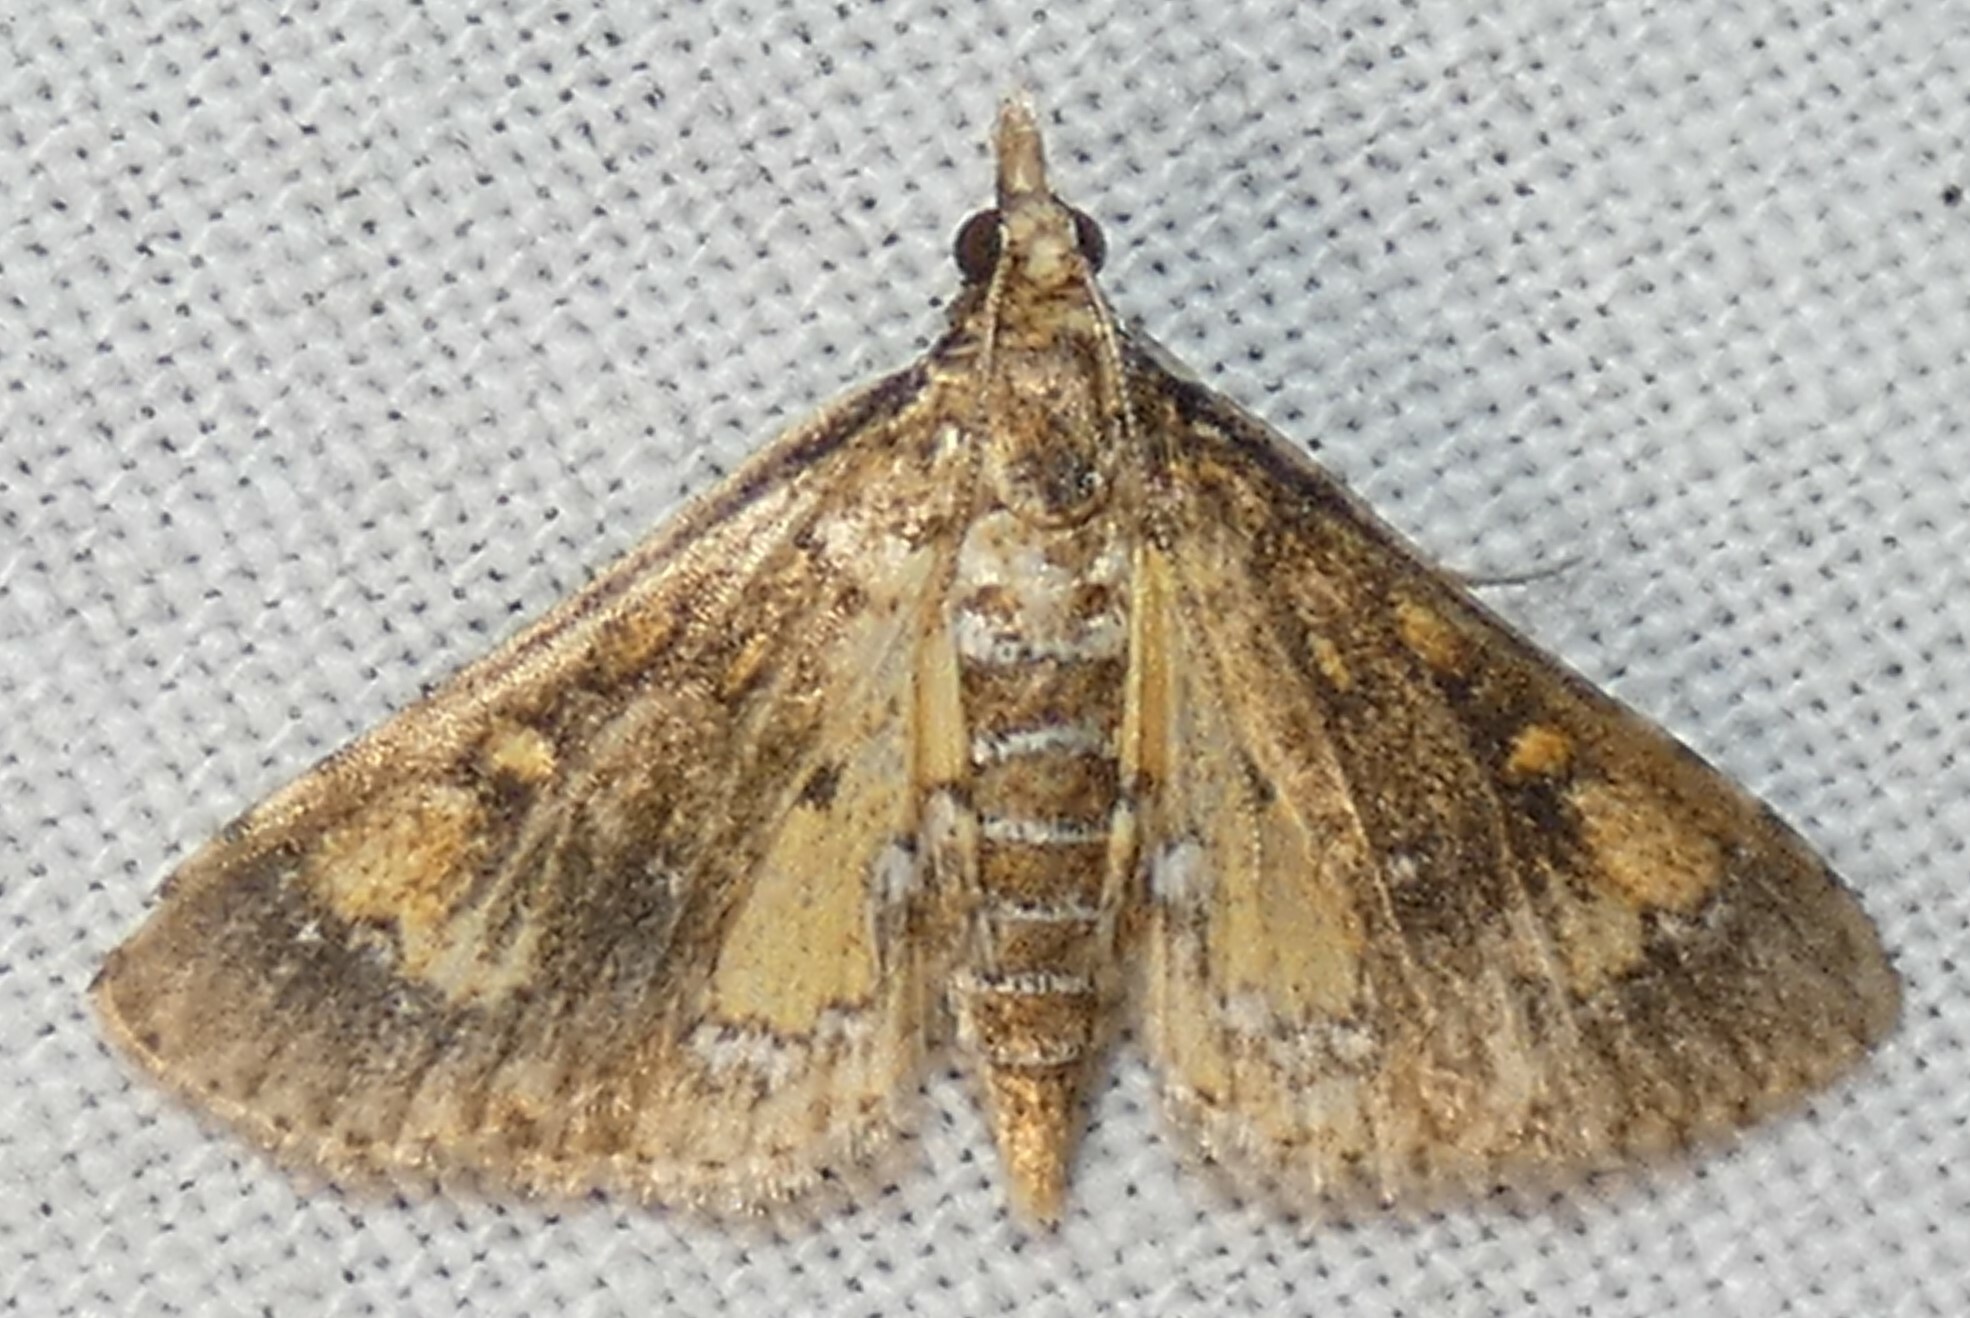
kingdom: Animalia
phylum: Arthropoda
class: Insecta
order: Lepidoptera
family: Crambidae
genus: Niphograpta
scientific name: Niphograpta albiguttalis
